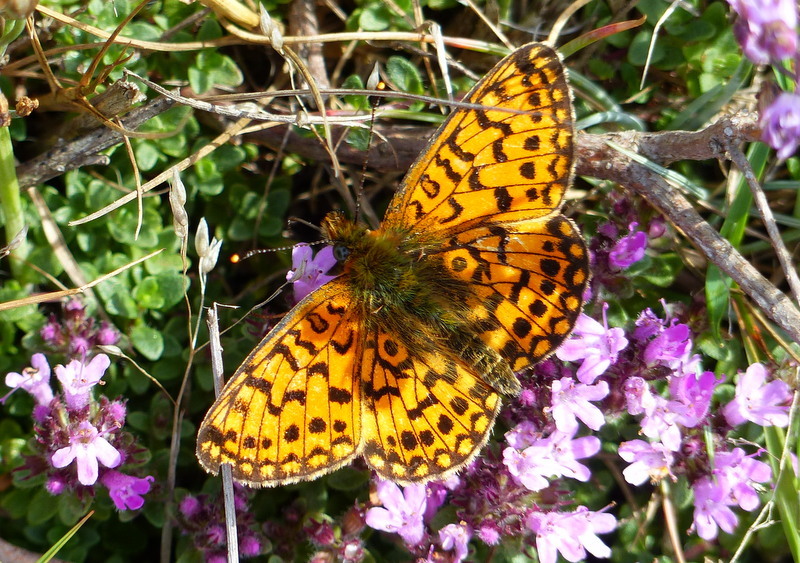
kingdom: Animalia
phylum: Arthropoda
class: Insecta
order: Lepidoptera
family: Nymphalidae
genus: Boloria
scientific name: Boloria selene
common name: Small pearl-bordered fritillary
